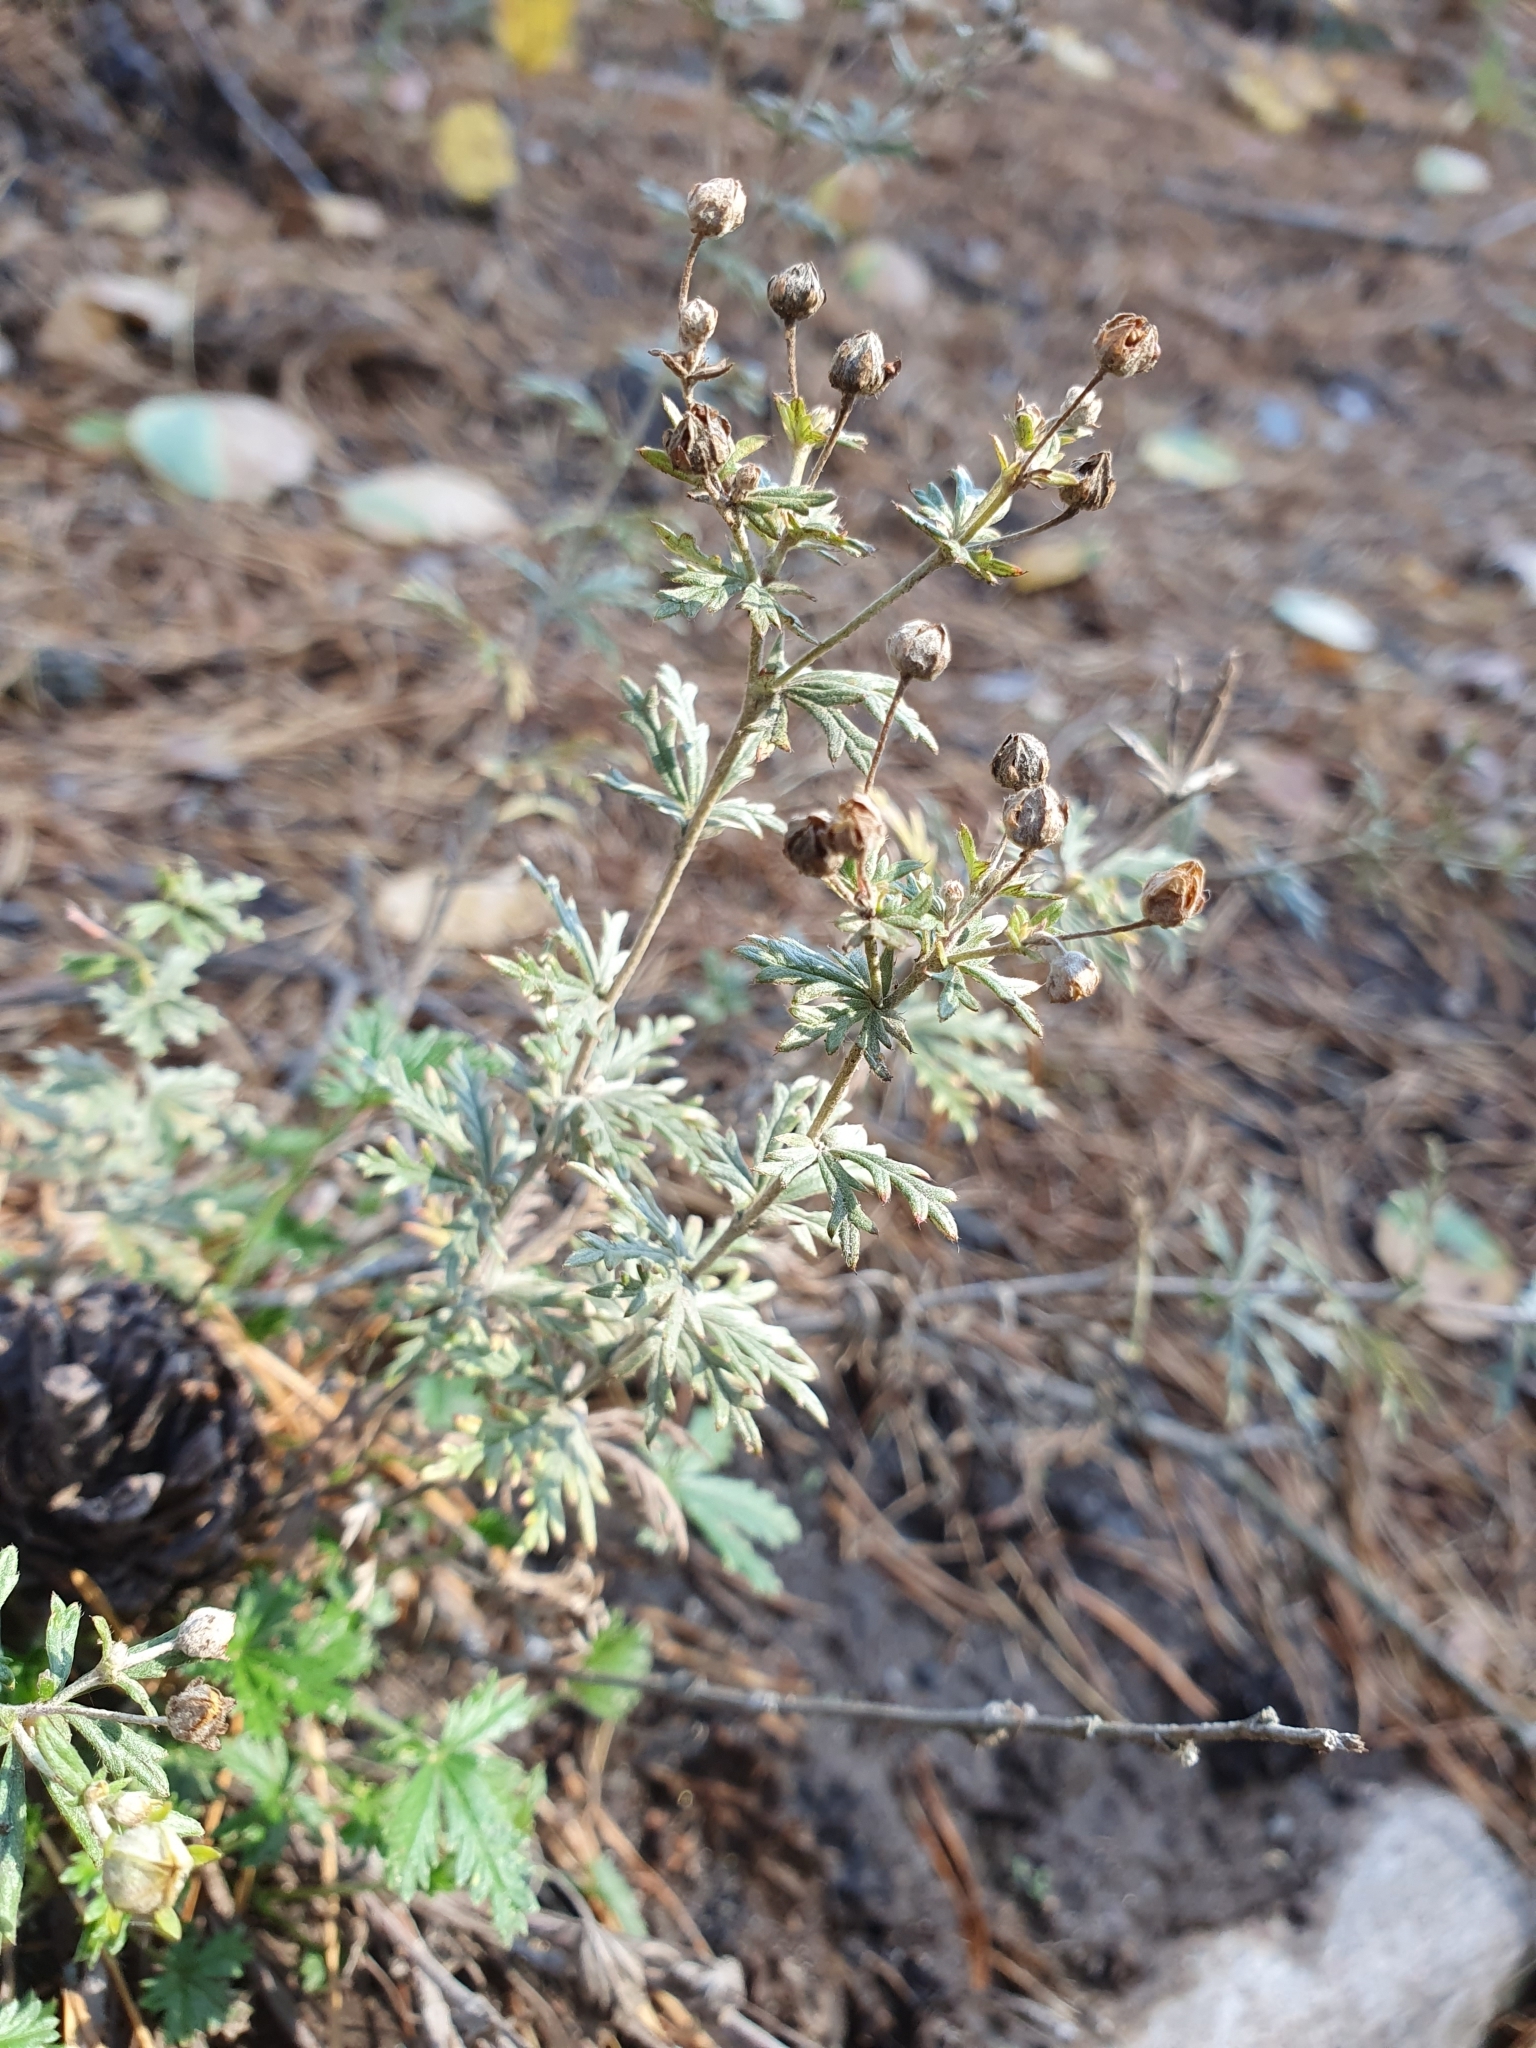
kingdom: Plantae
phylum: Tracheophyta
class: Magnoliopsida
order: Rosales
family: Rosaceae
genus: Potentilla
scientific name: Potentilla argentea
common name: Hoary cinquefoil
